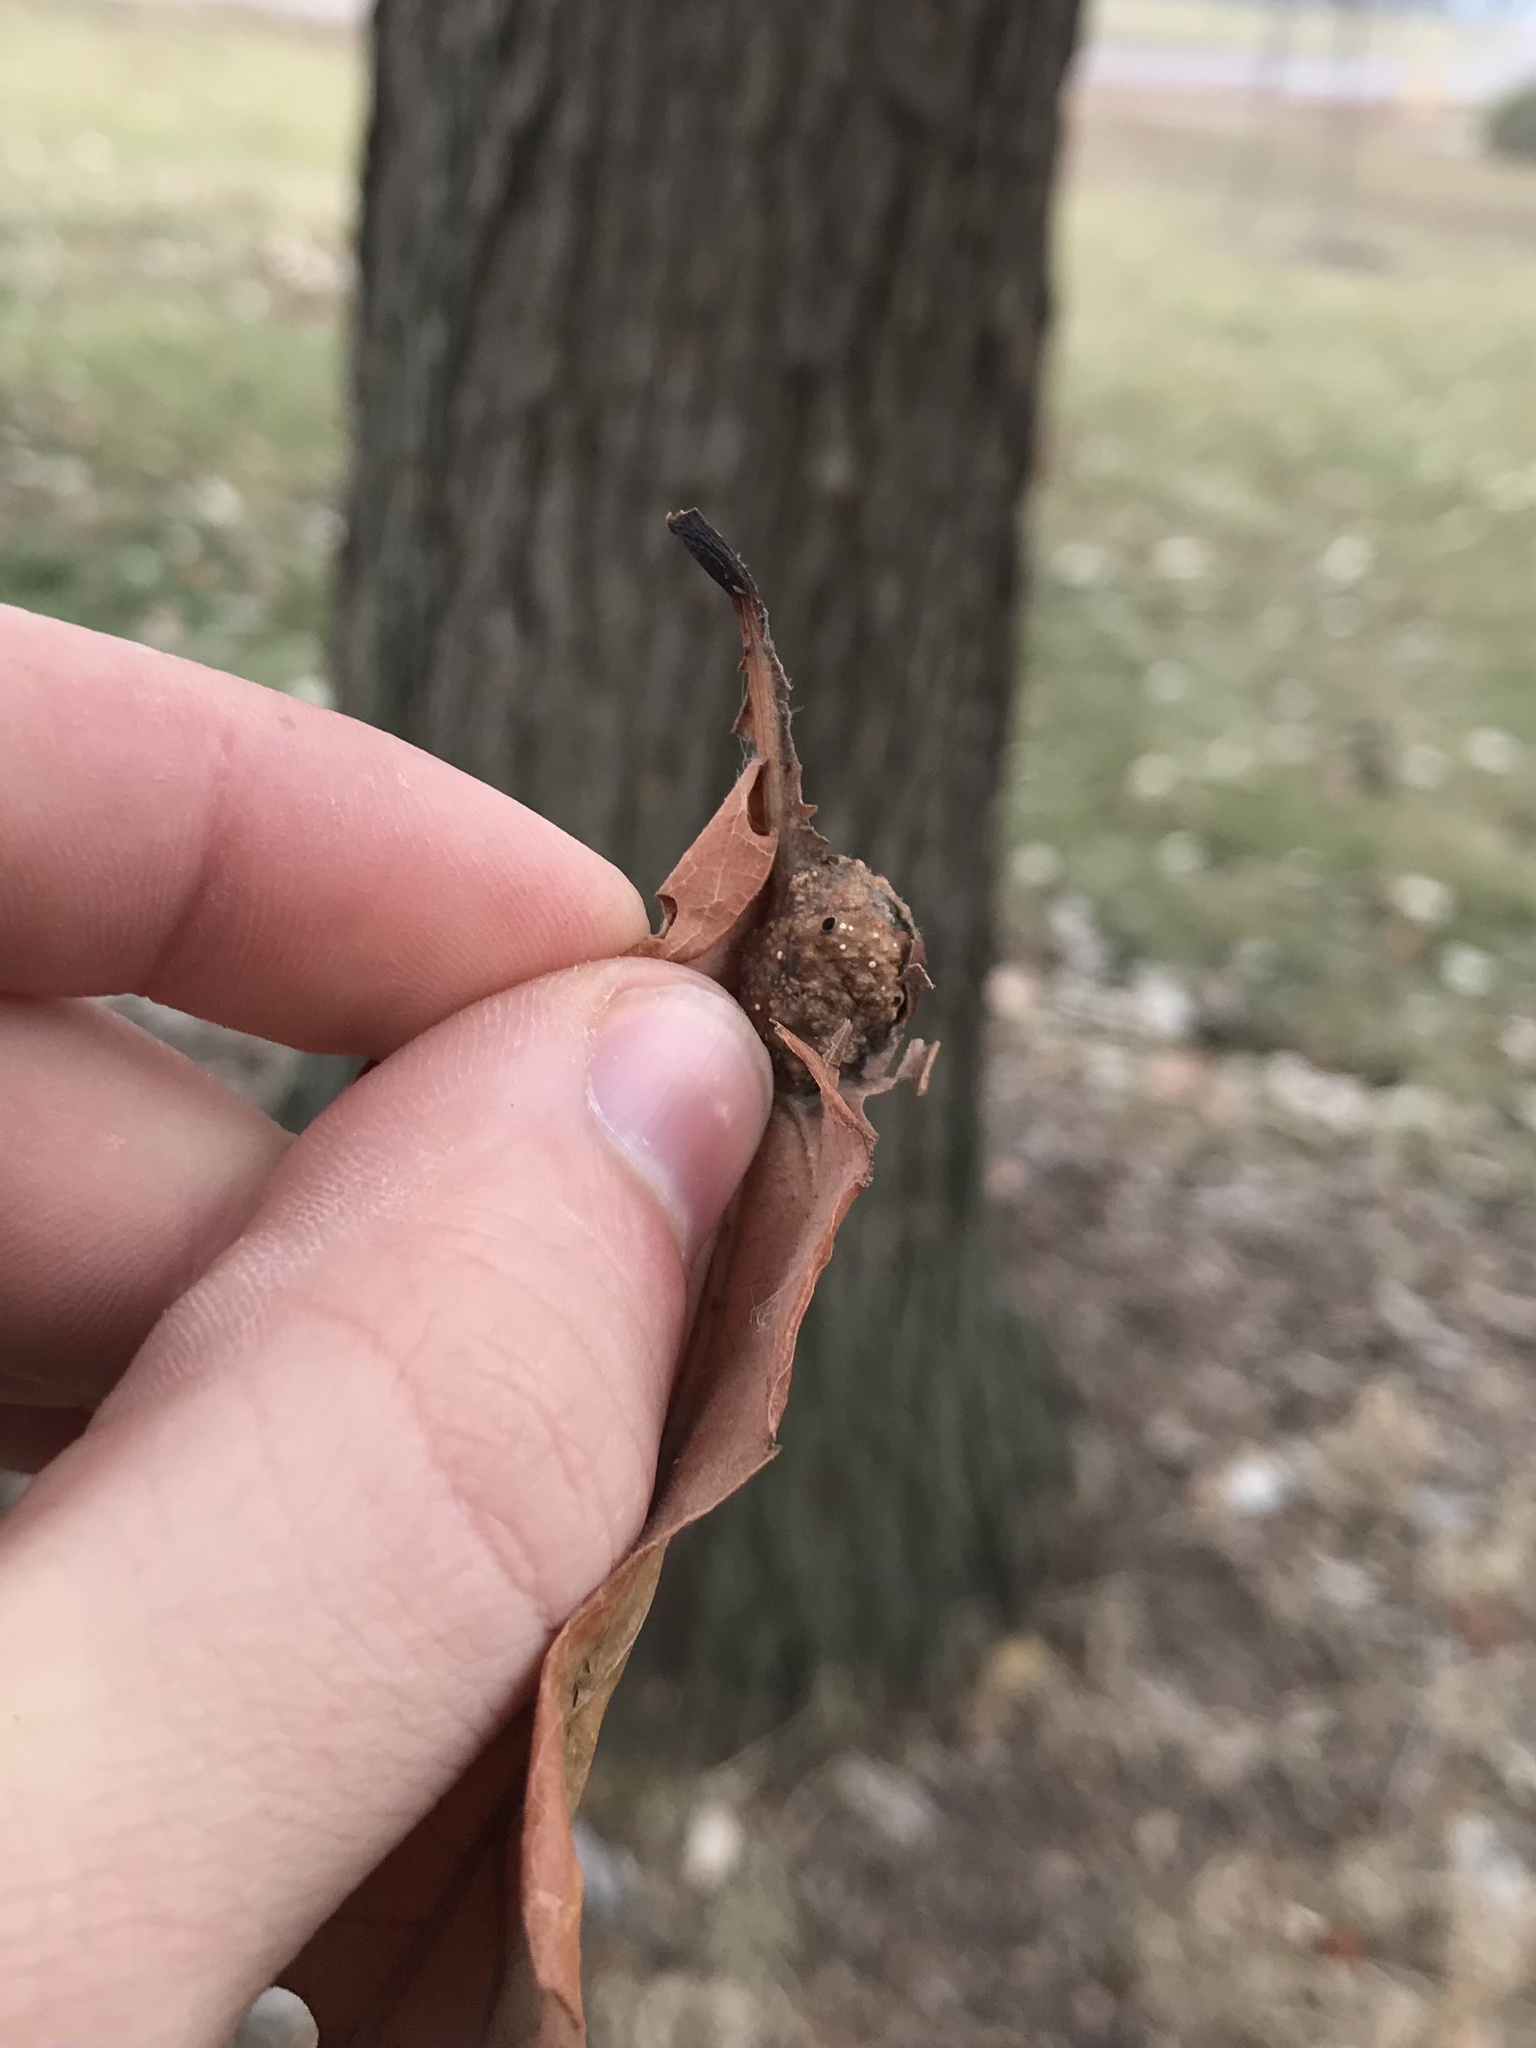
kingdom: Animalia
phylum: Arthropoda
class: Insecta
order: Hymenoptera
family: Cynipidae
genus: Andricus
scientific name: Andricus
